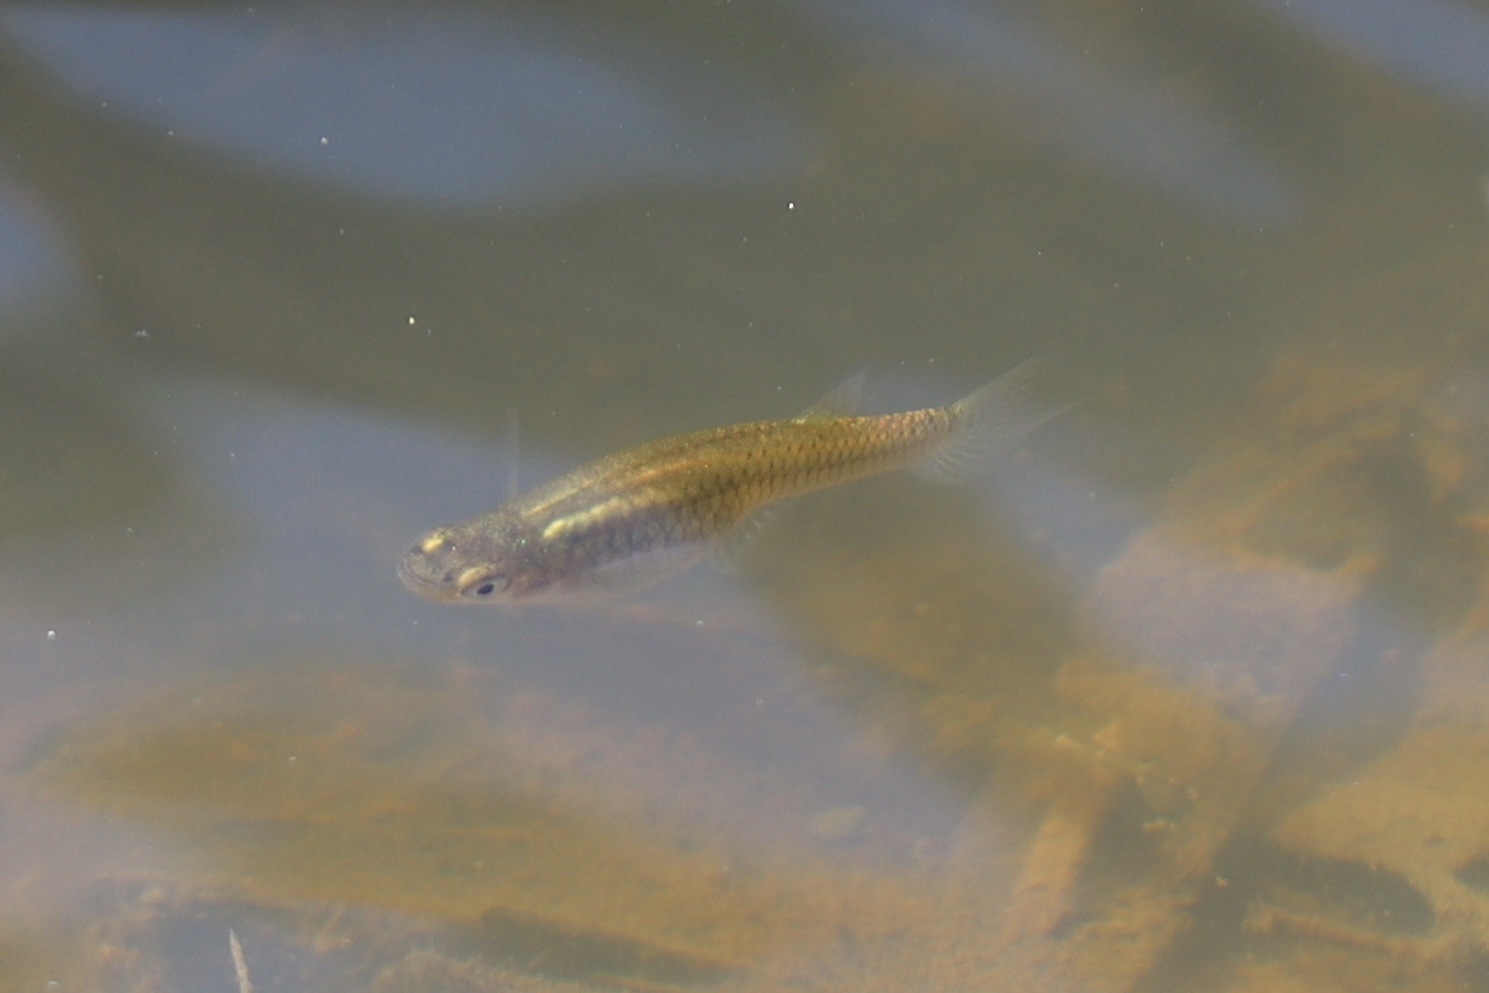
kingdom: Animalia
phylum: Chordata
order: Cyprinodontiformes
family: Poeciliidae
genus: Gambusia
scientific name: Gambusia holbrooki
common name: Eastern mosquitofish
